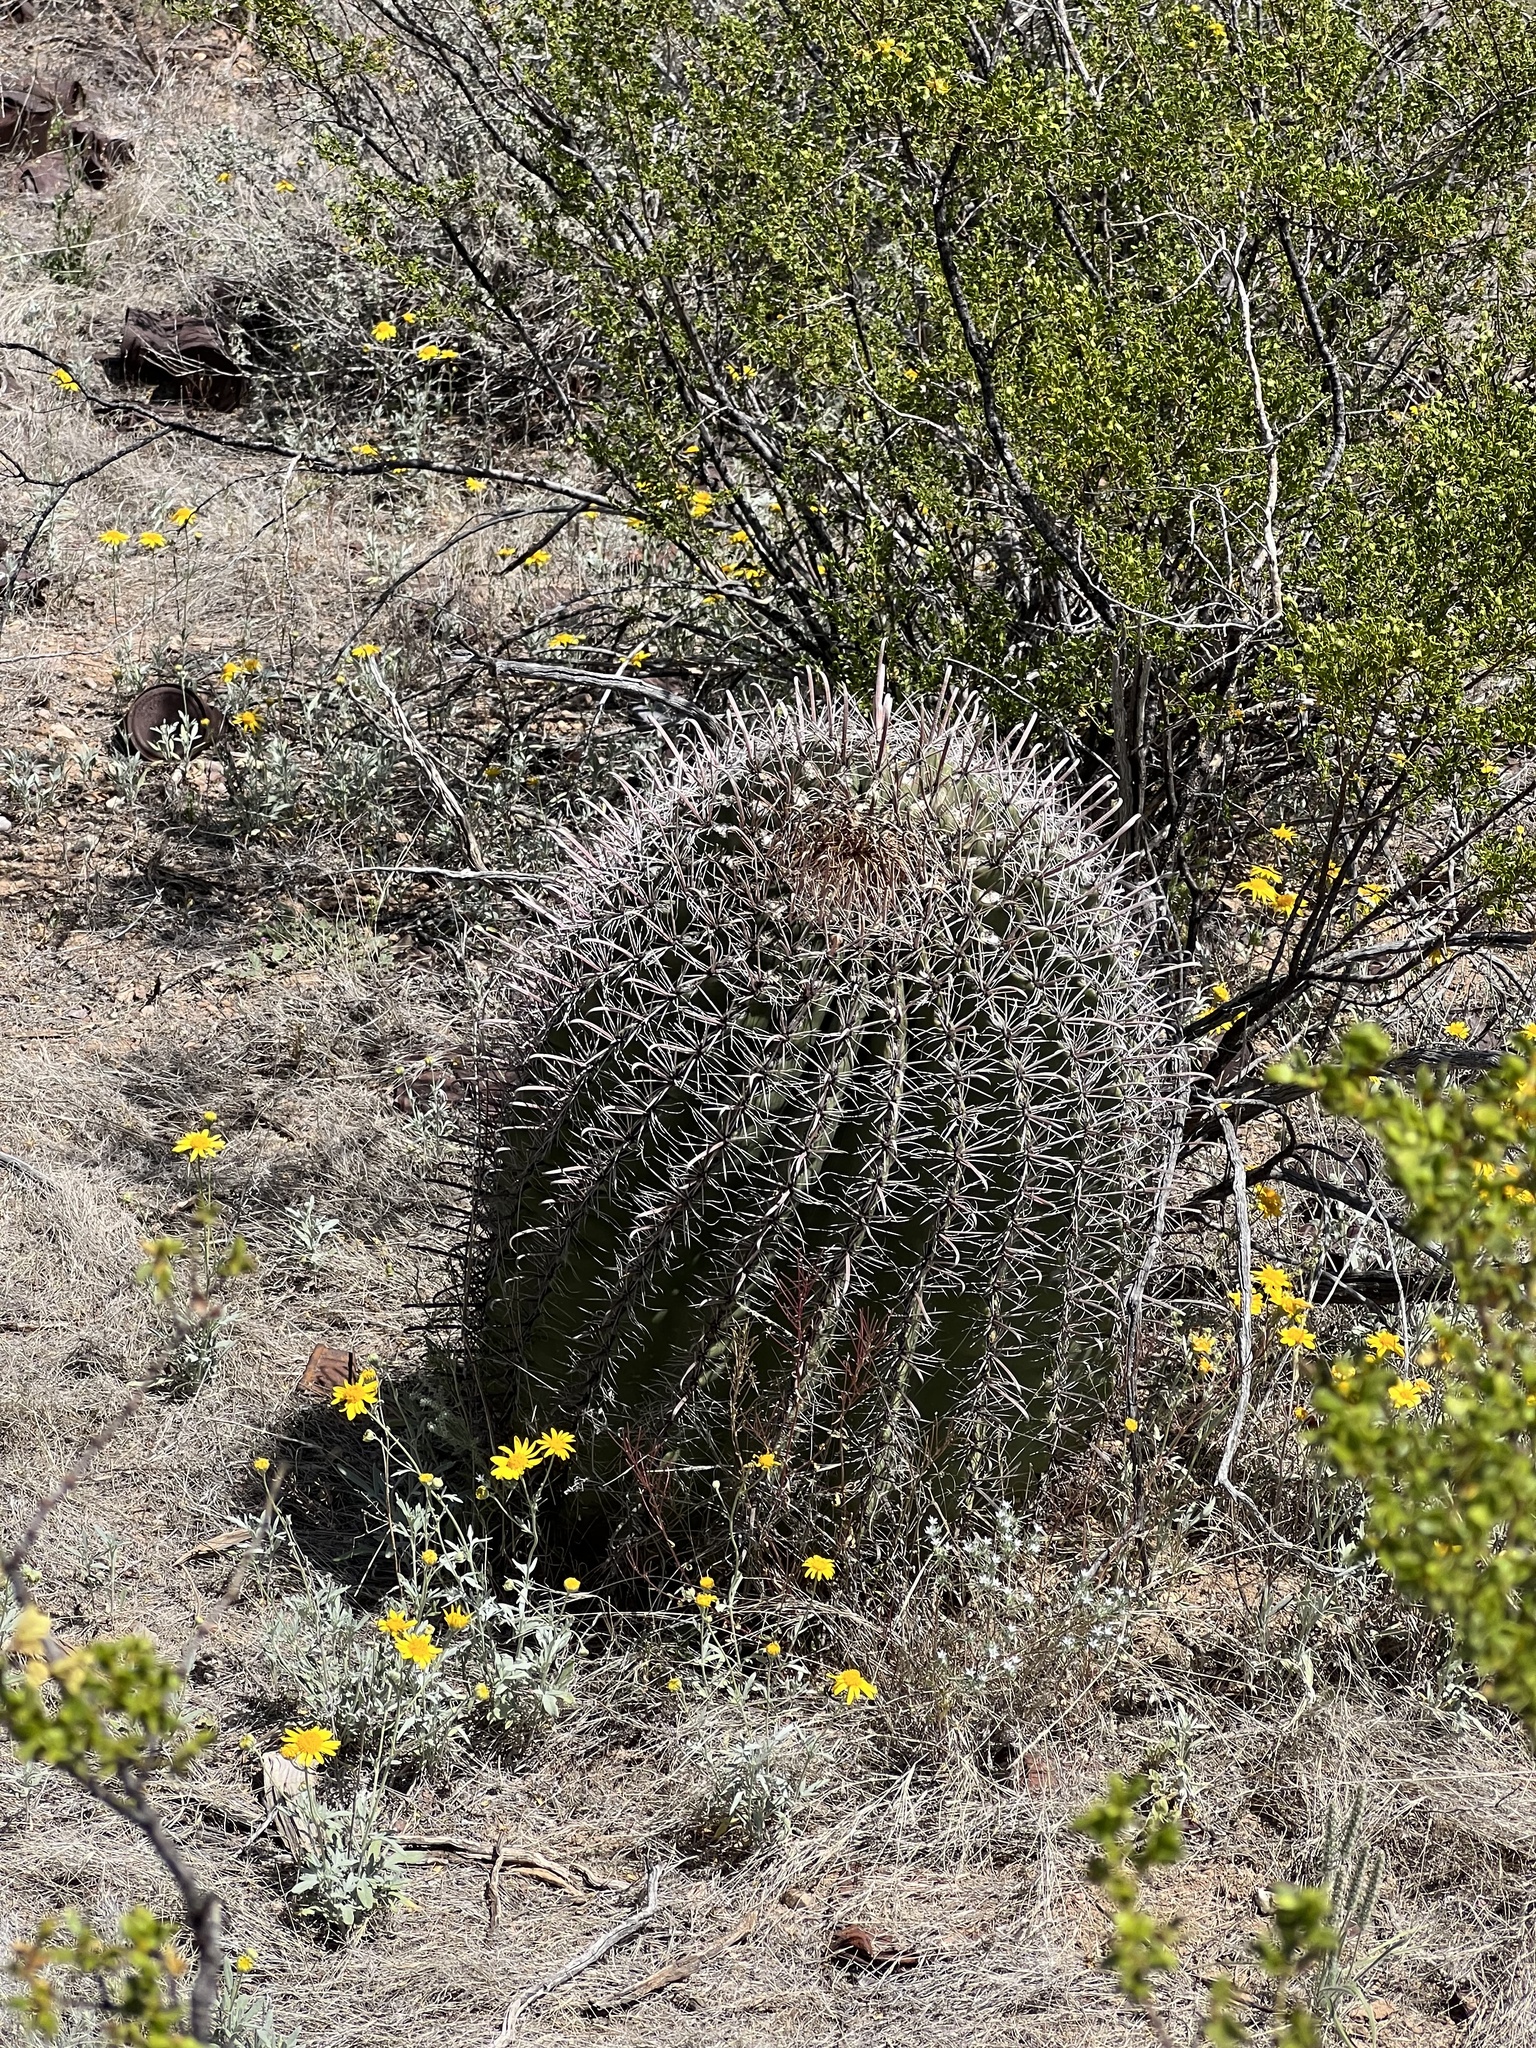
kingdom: Plantae
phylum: Tracheophyta
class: Magnoliopsida
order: Caryophyllales
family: Cactaceae
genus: Ferocactus
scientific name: Ferocactus wislizeni
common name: Candy barrel cactus
